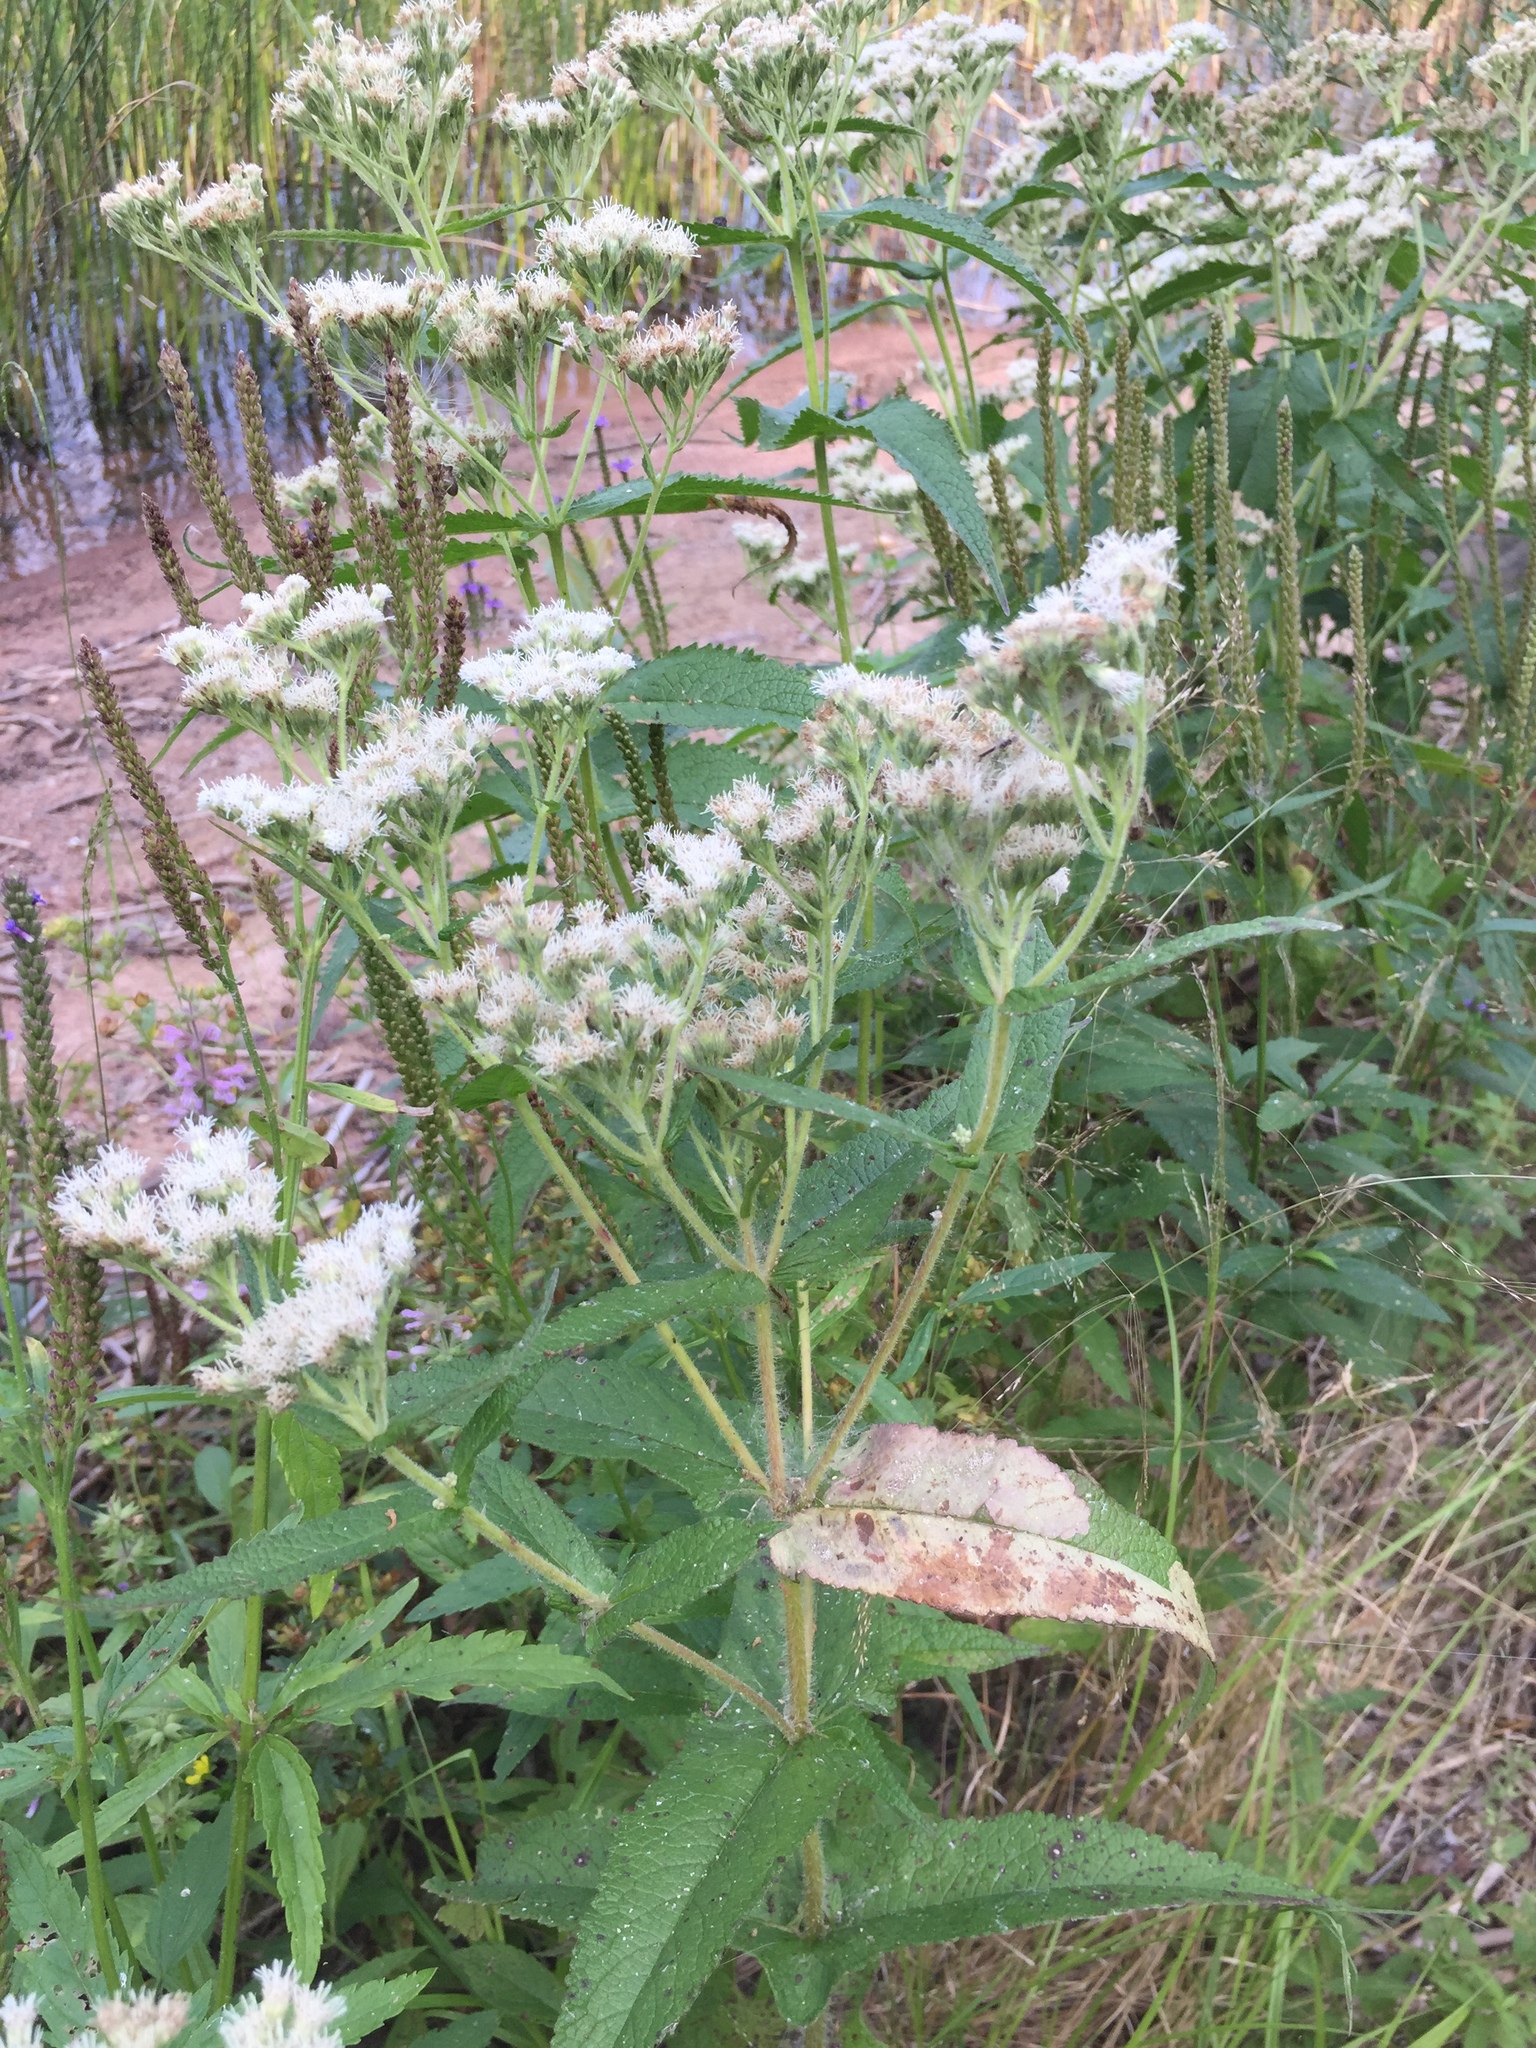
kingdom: Plantae
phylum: Tracheophyta
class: Magnoliopsida
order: Asterales
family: Asteraceae
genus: Eupatorium
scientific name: Eupatorium perfoliatum
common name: Boneset
